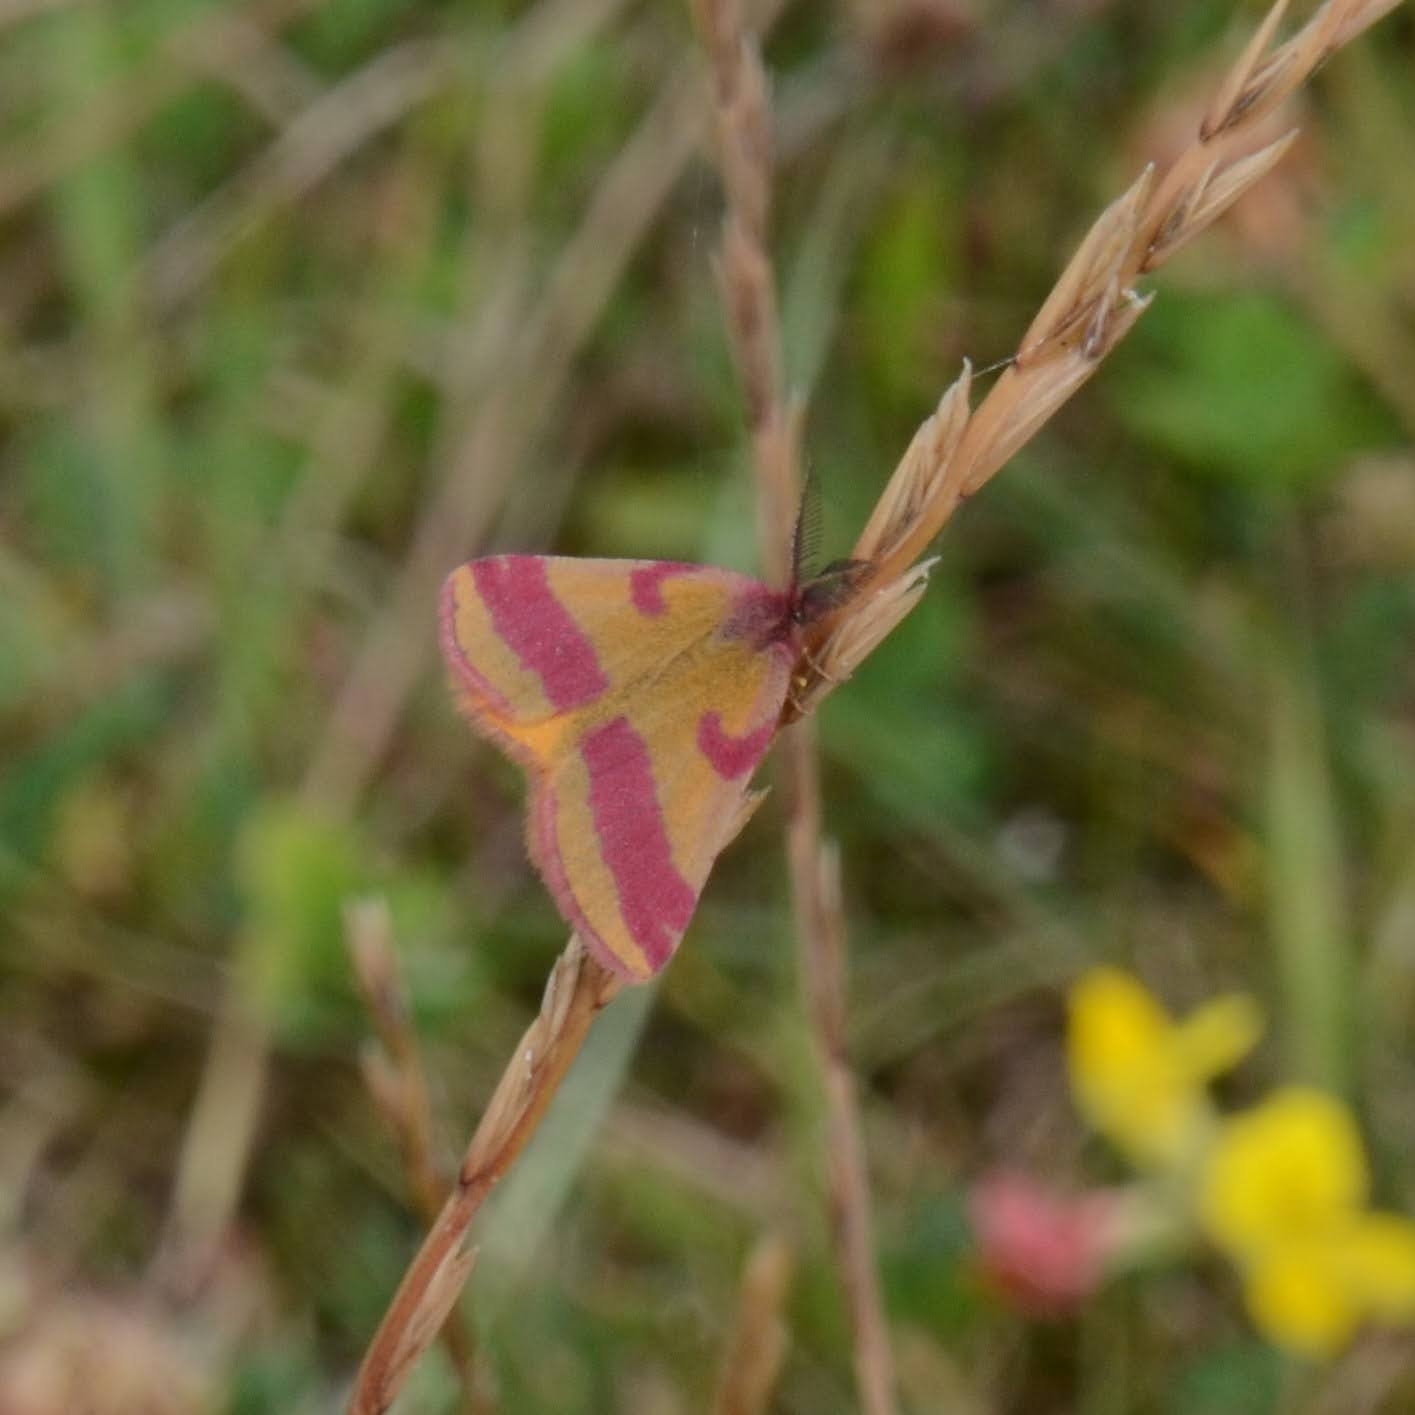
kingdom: Animalia
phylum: Arthropoda
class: Insecta
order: Lepidoptera
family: Geometridae
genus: Lythria
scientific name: Lythria cruentaria
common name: Purple-barred yellow
